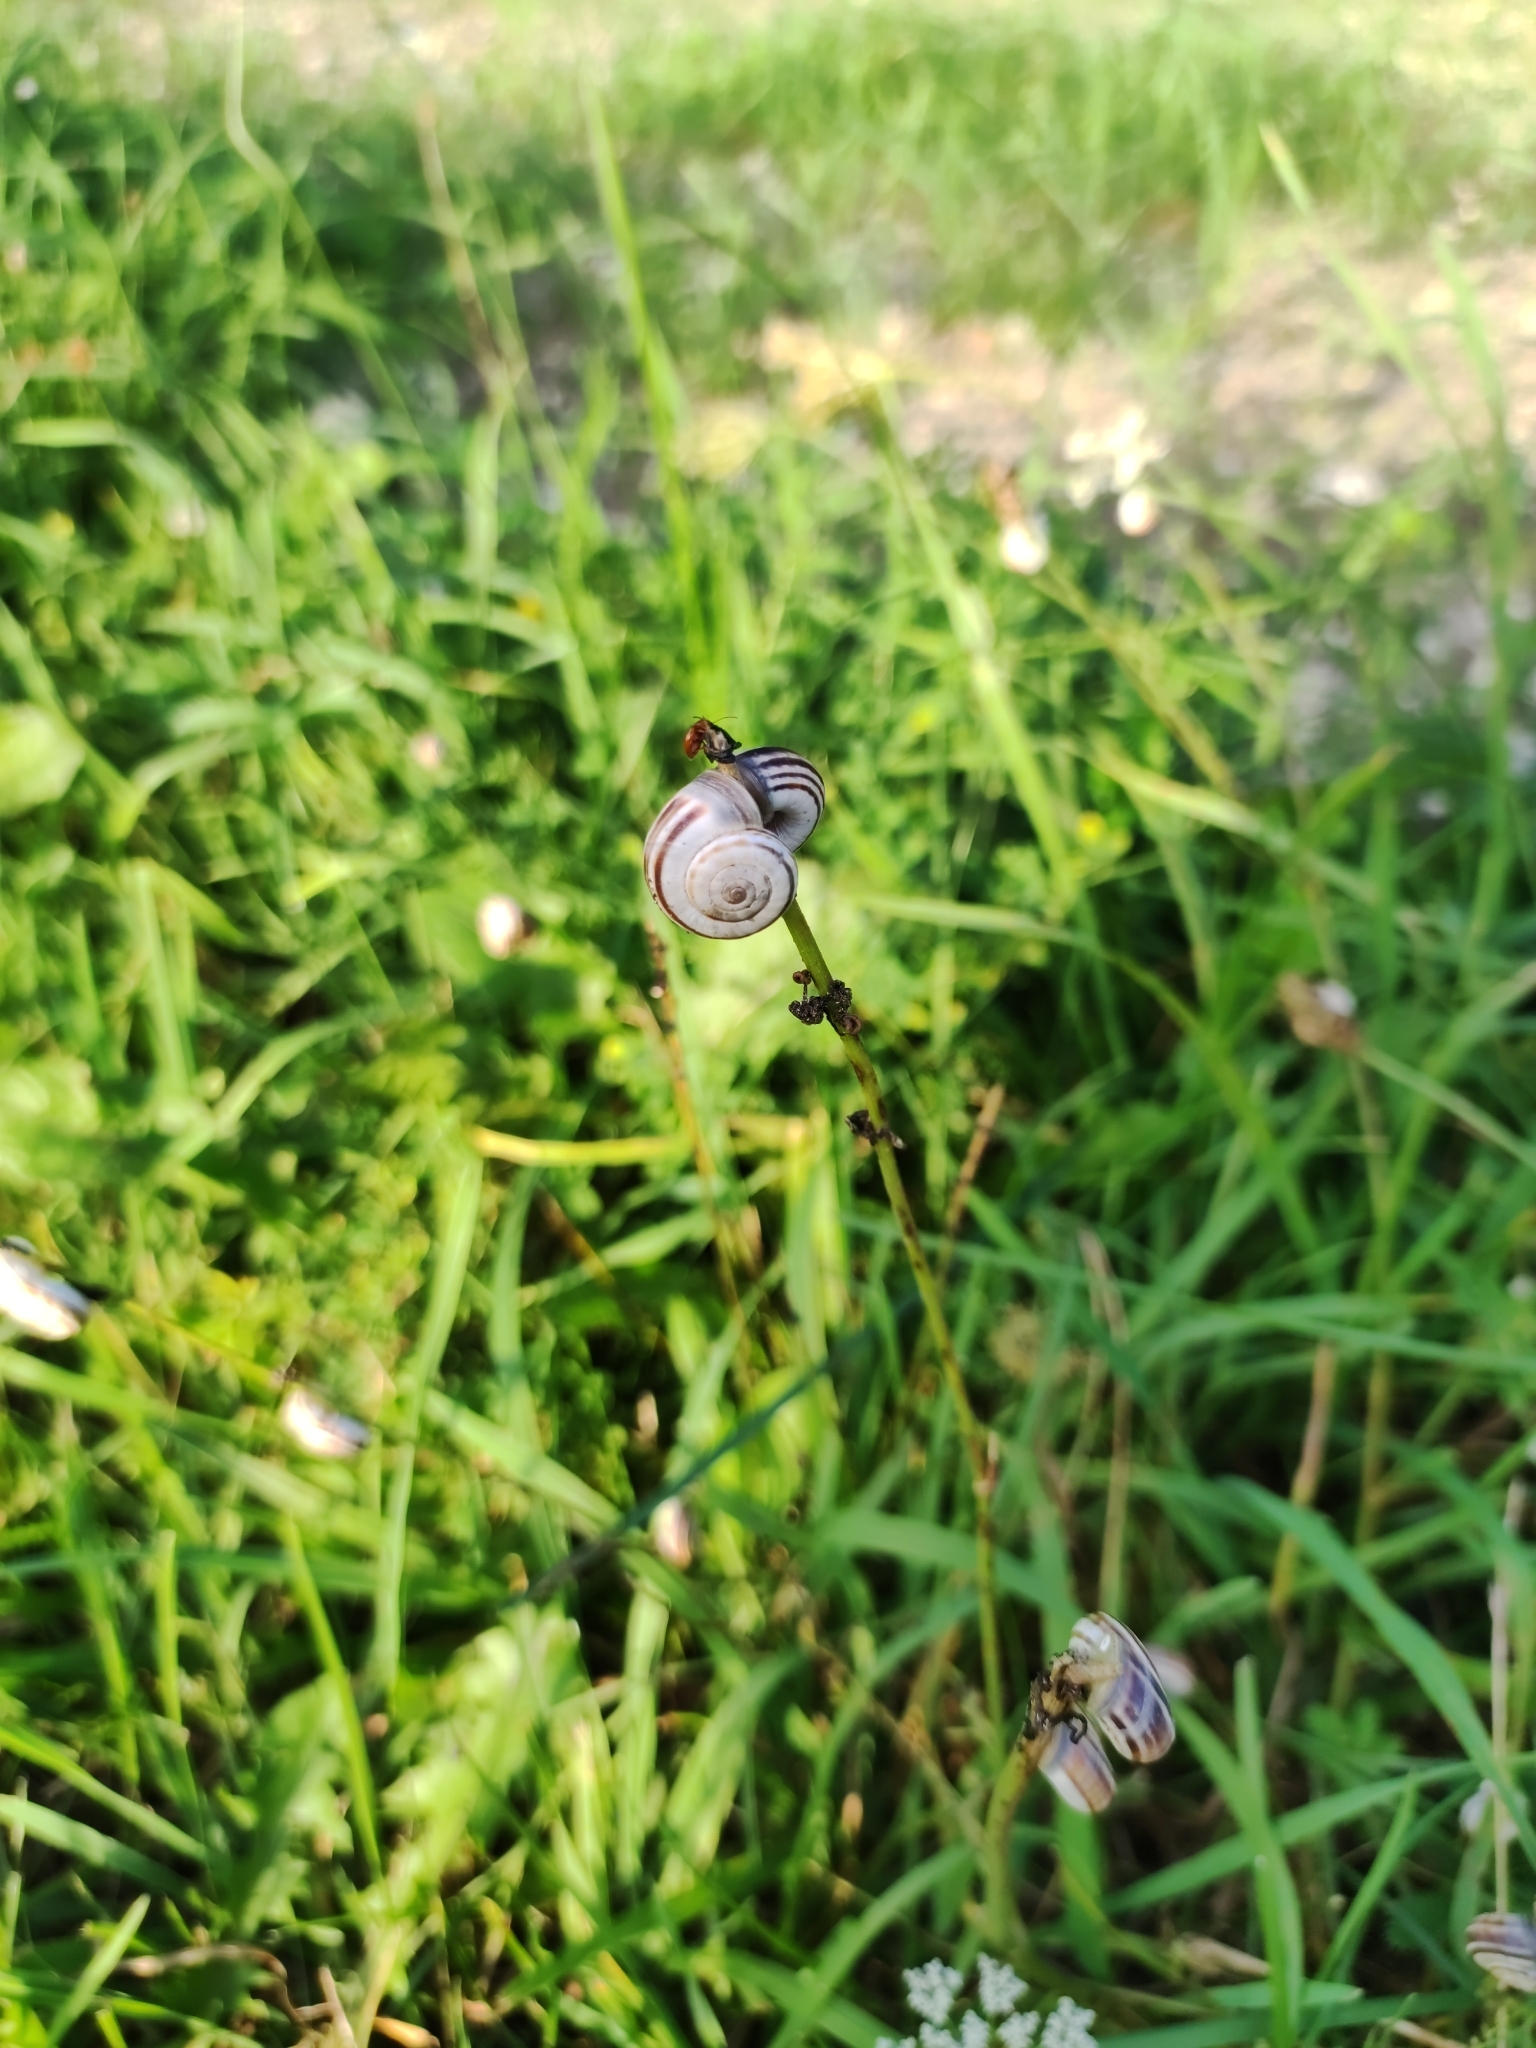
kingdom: Animalia
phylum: Mollusca
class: Gastropoda
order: Stylommatophora
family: Geomitridae
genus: Xerolenta
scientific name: Xerolenta obvia
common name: White heath snail
